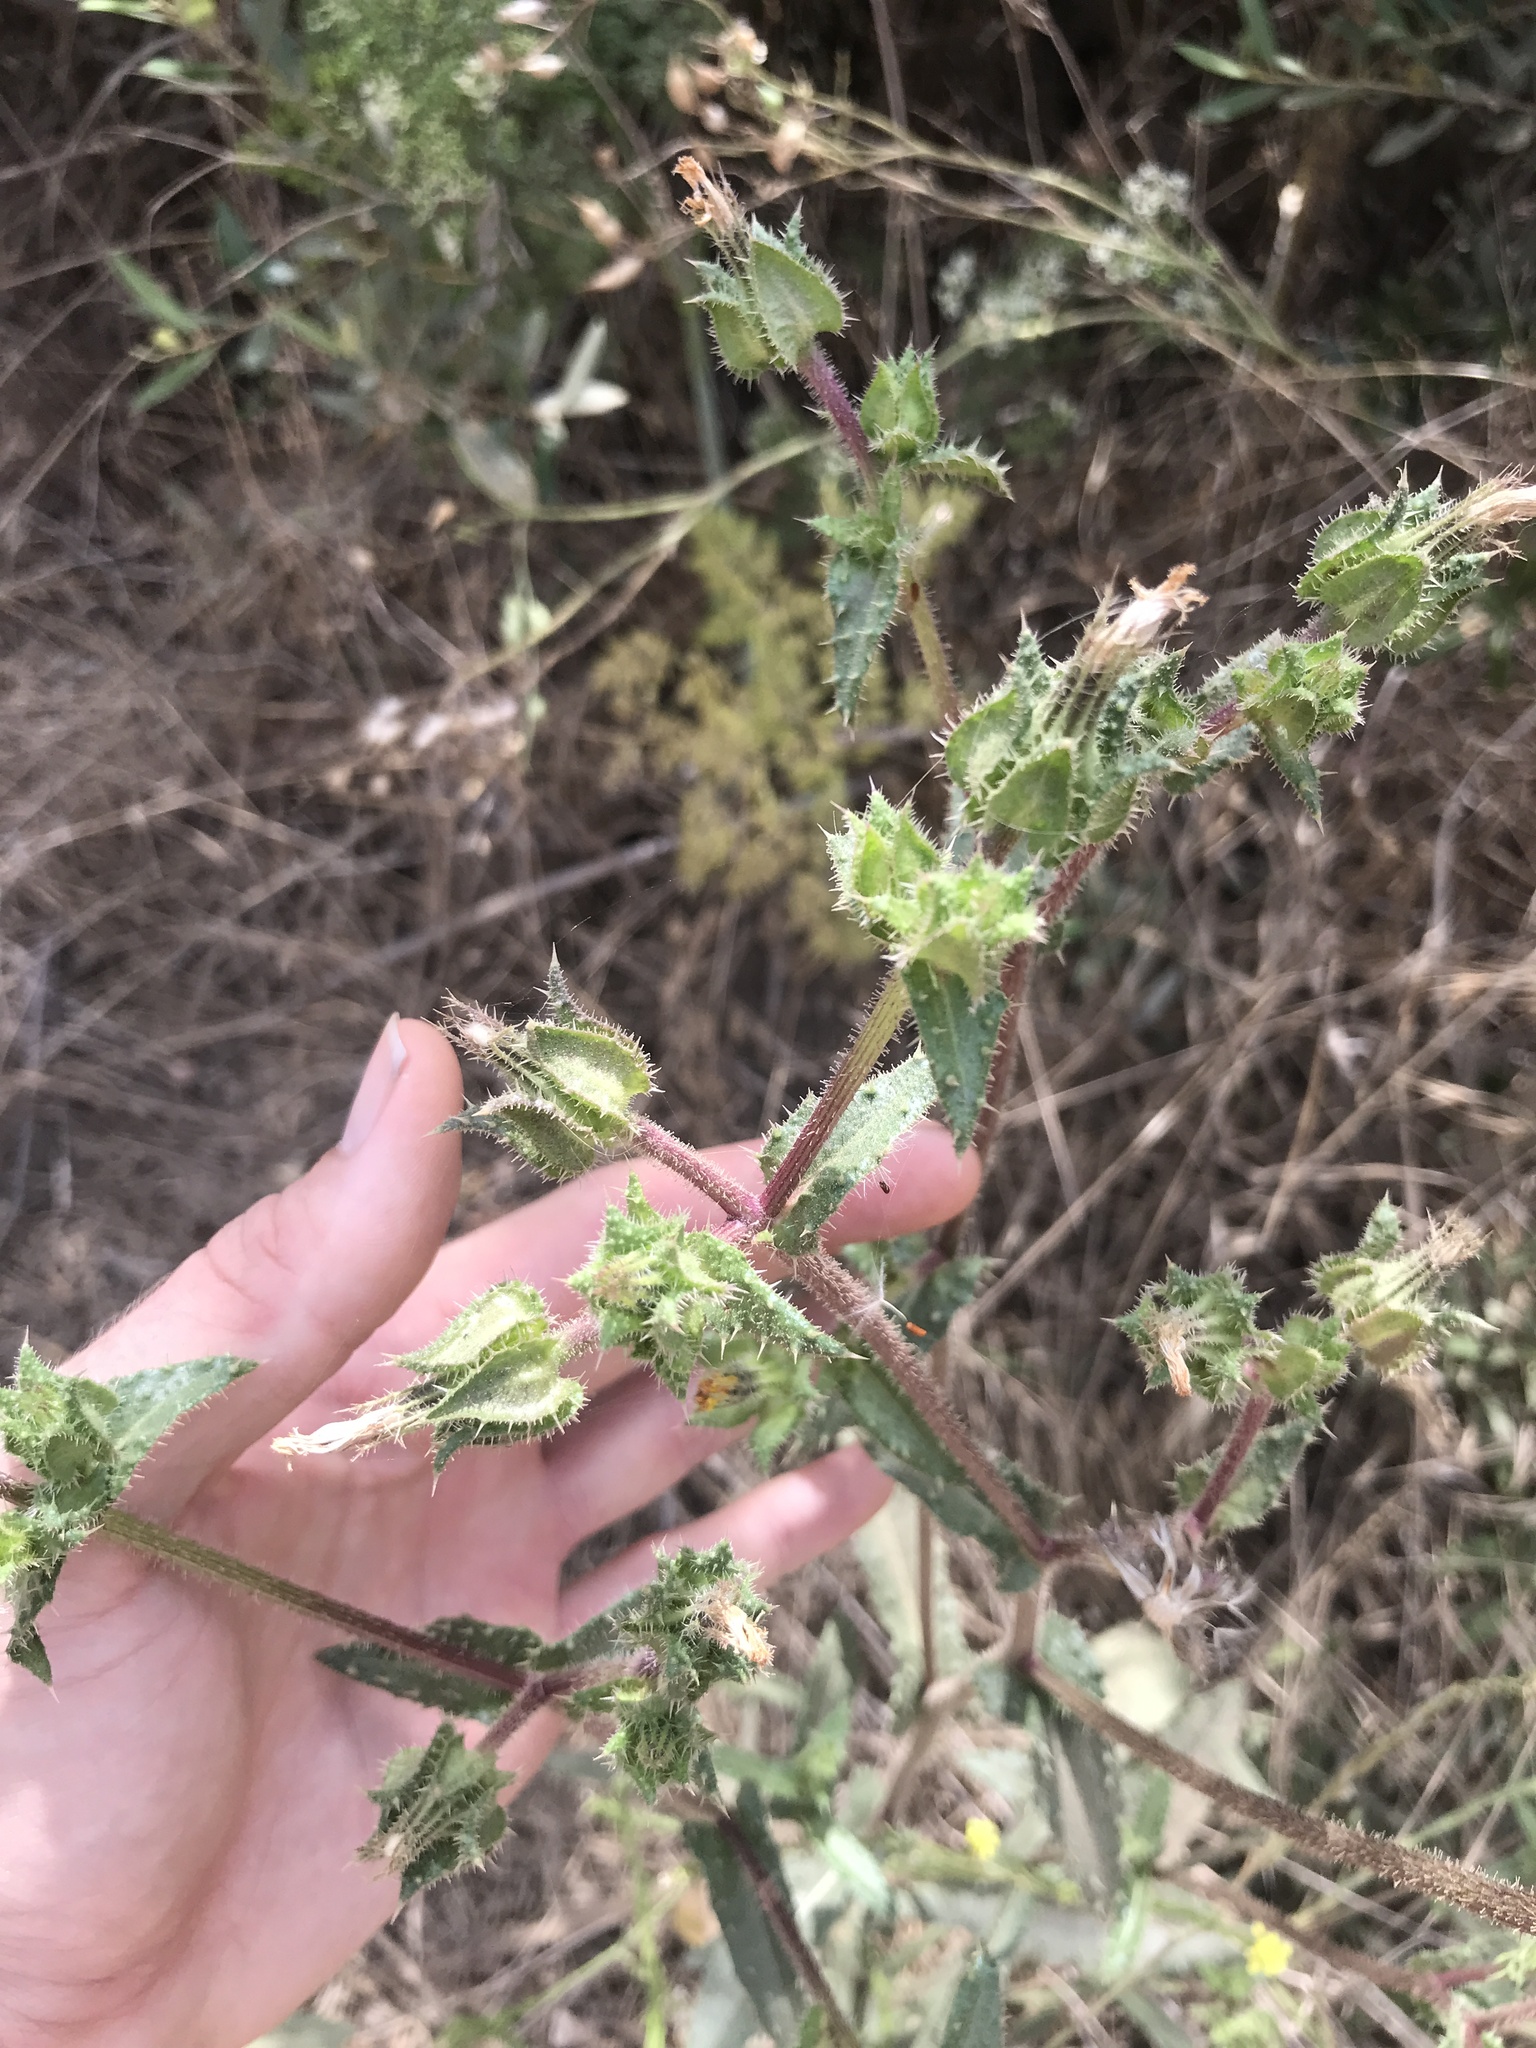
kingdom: Plantae
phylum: Tracheophyta
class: Magnoliopsida
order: Asterales
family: Asteraceae
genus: Helminthotheca
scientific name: Helminthotheca echioides
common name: Ox-tongue
